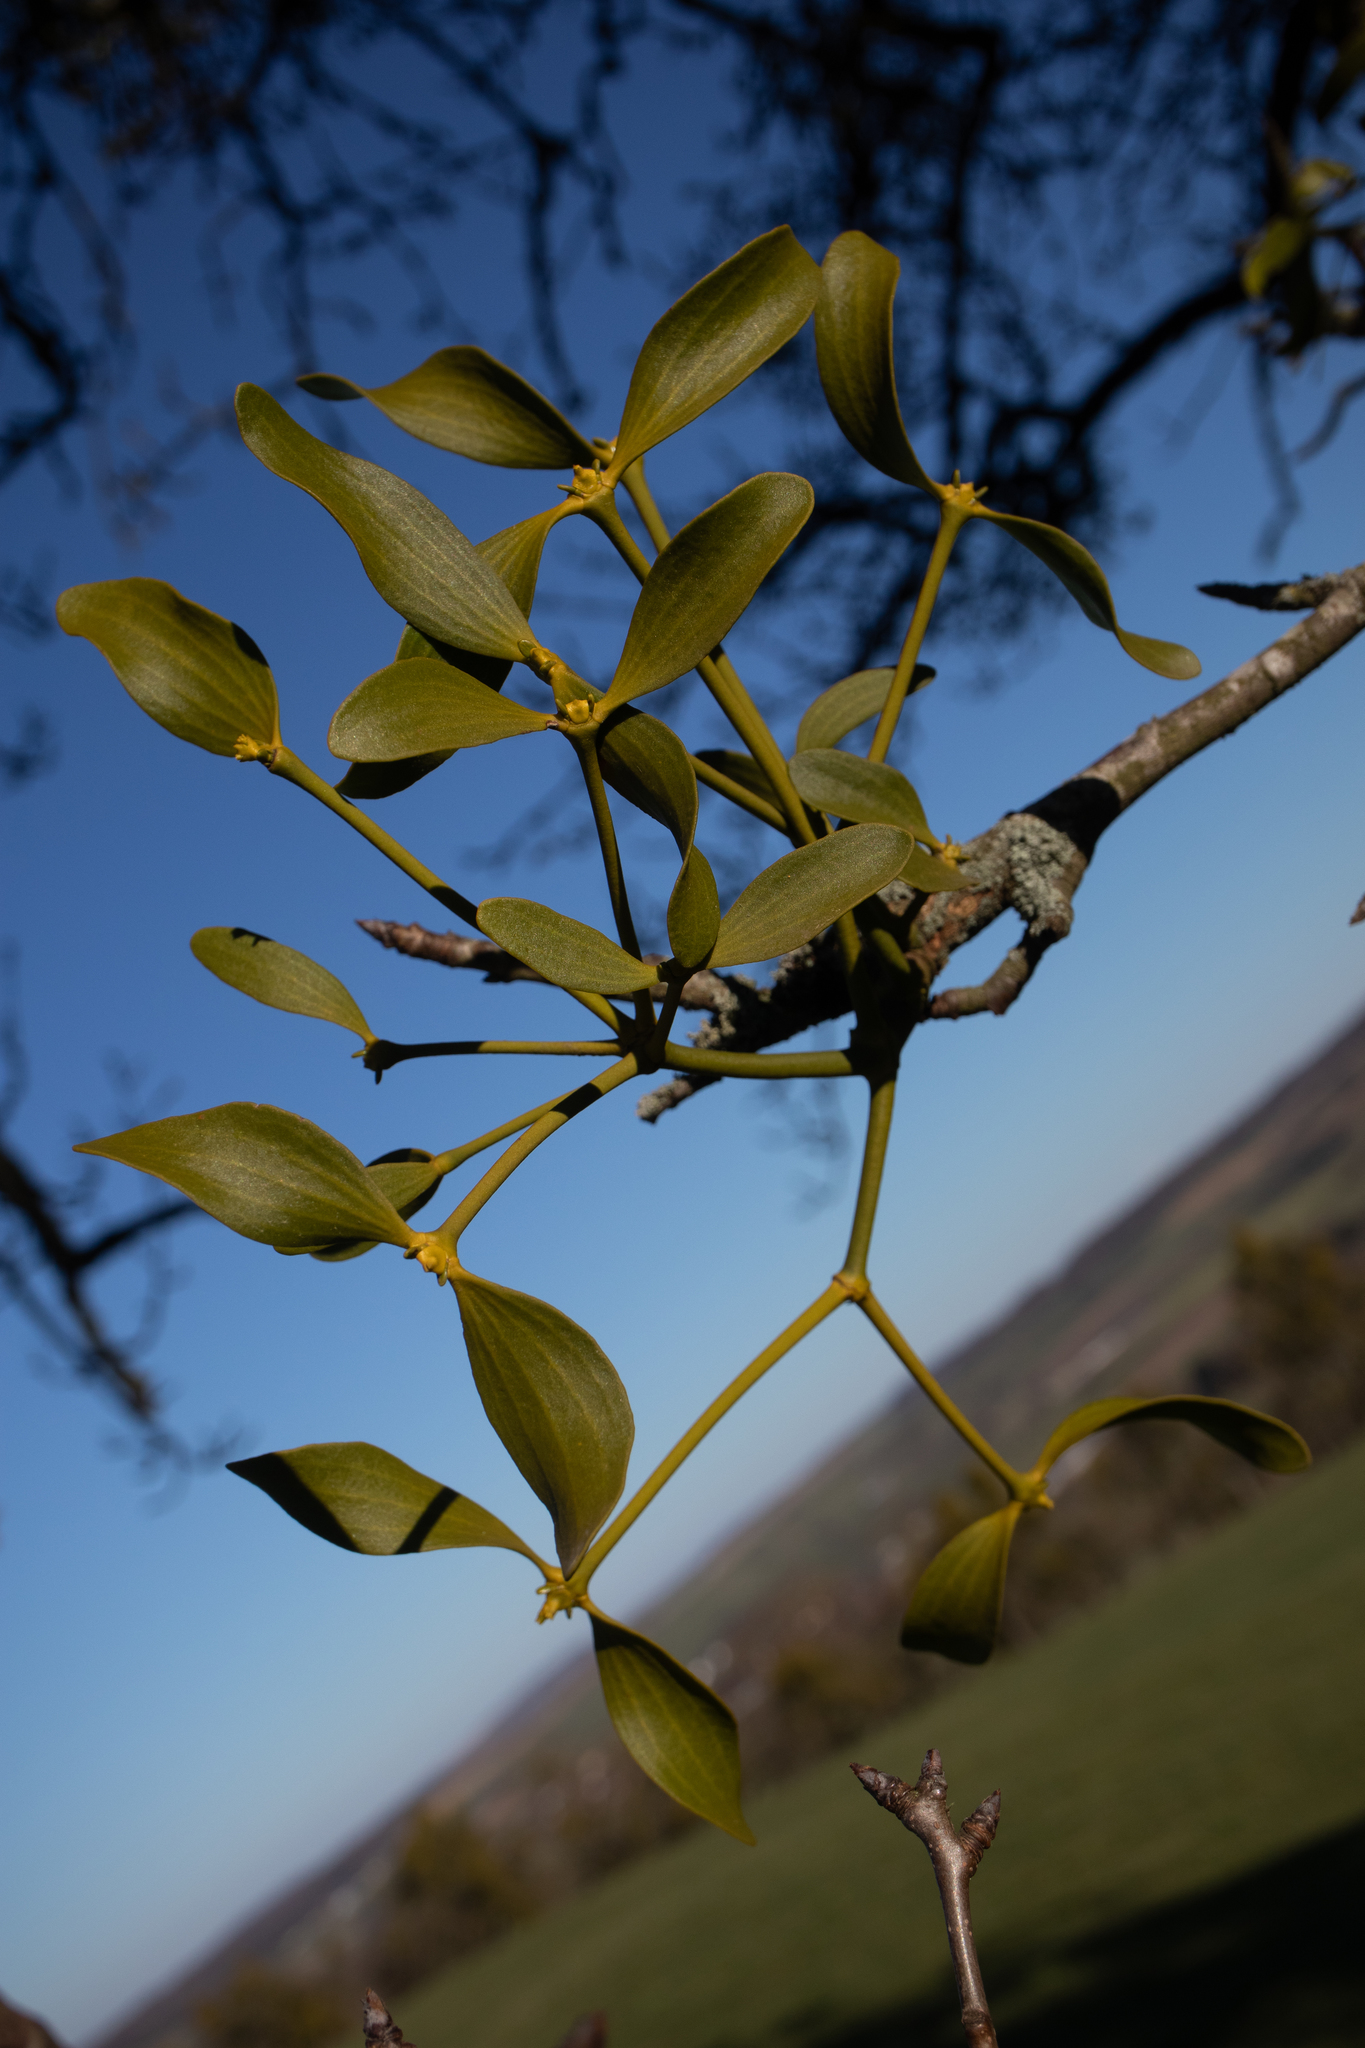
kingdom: Plantae
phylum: Tracheophyta
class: Magnoliopsida
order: Santalales
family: Viscaceae
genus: Viscum
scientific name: Viscum album
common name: Mistletoe
